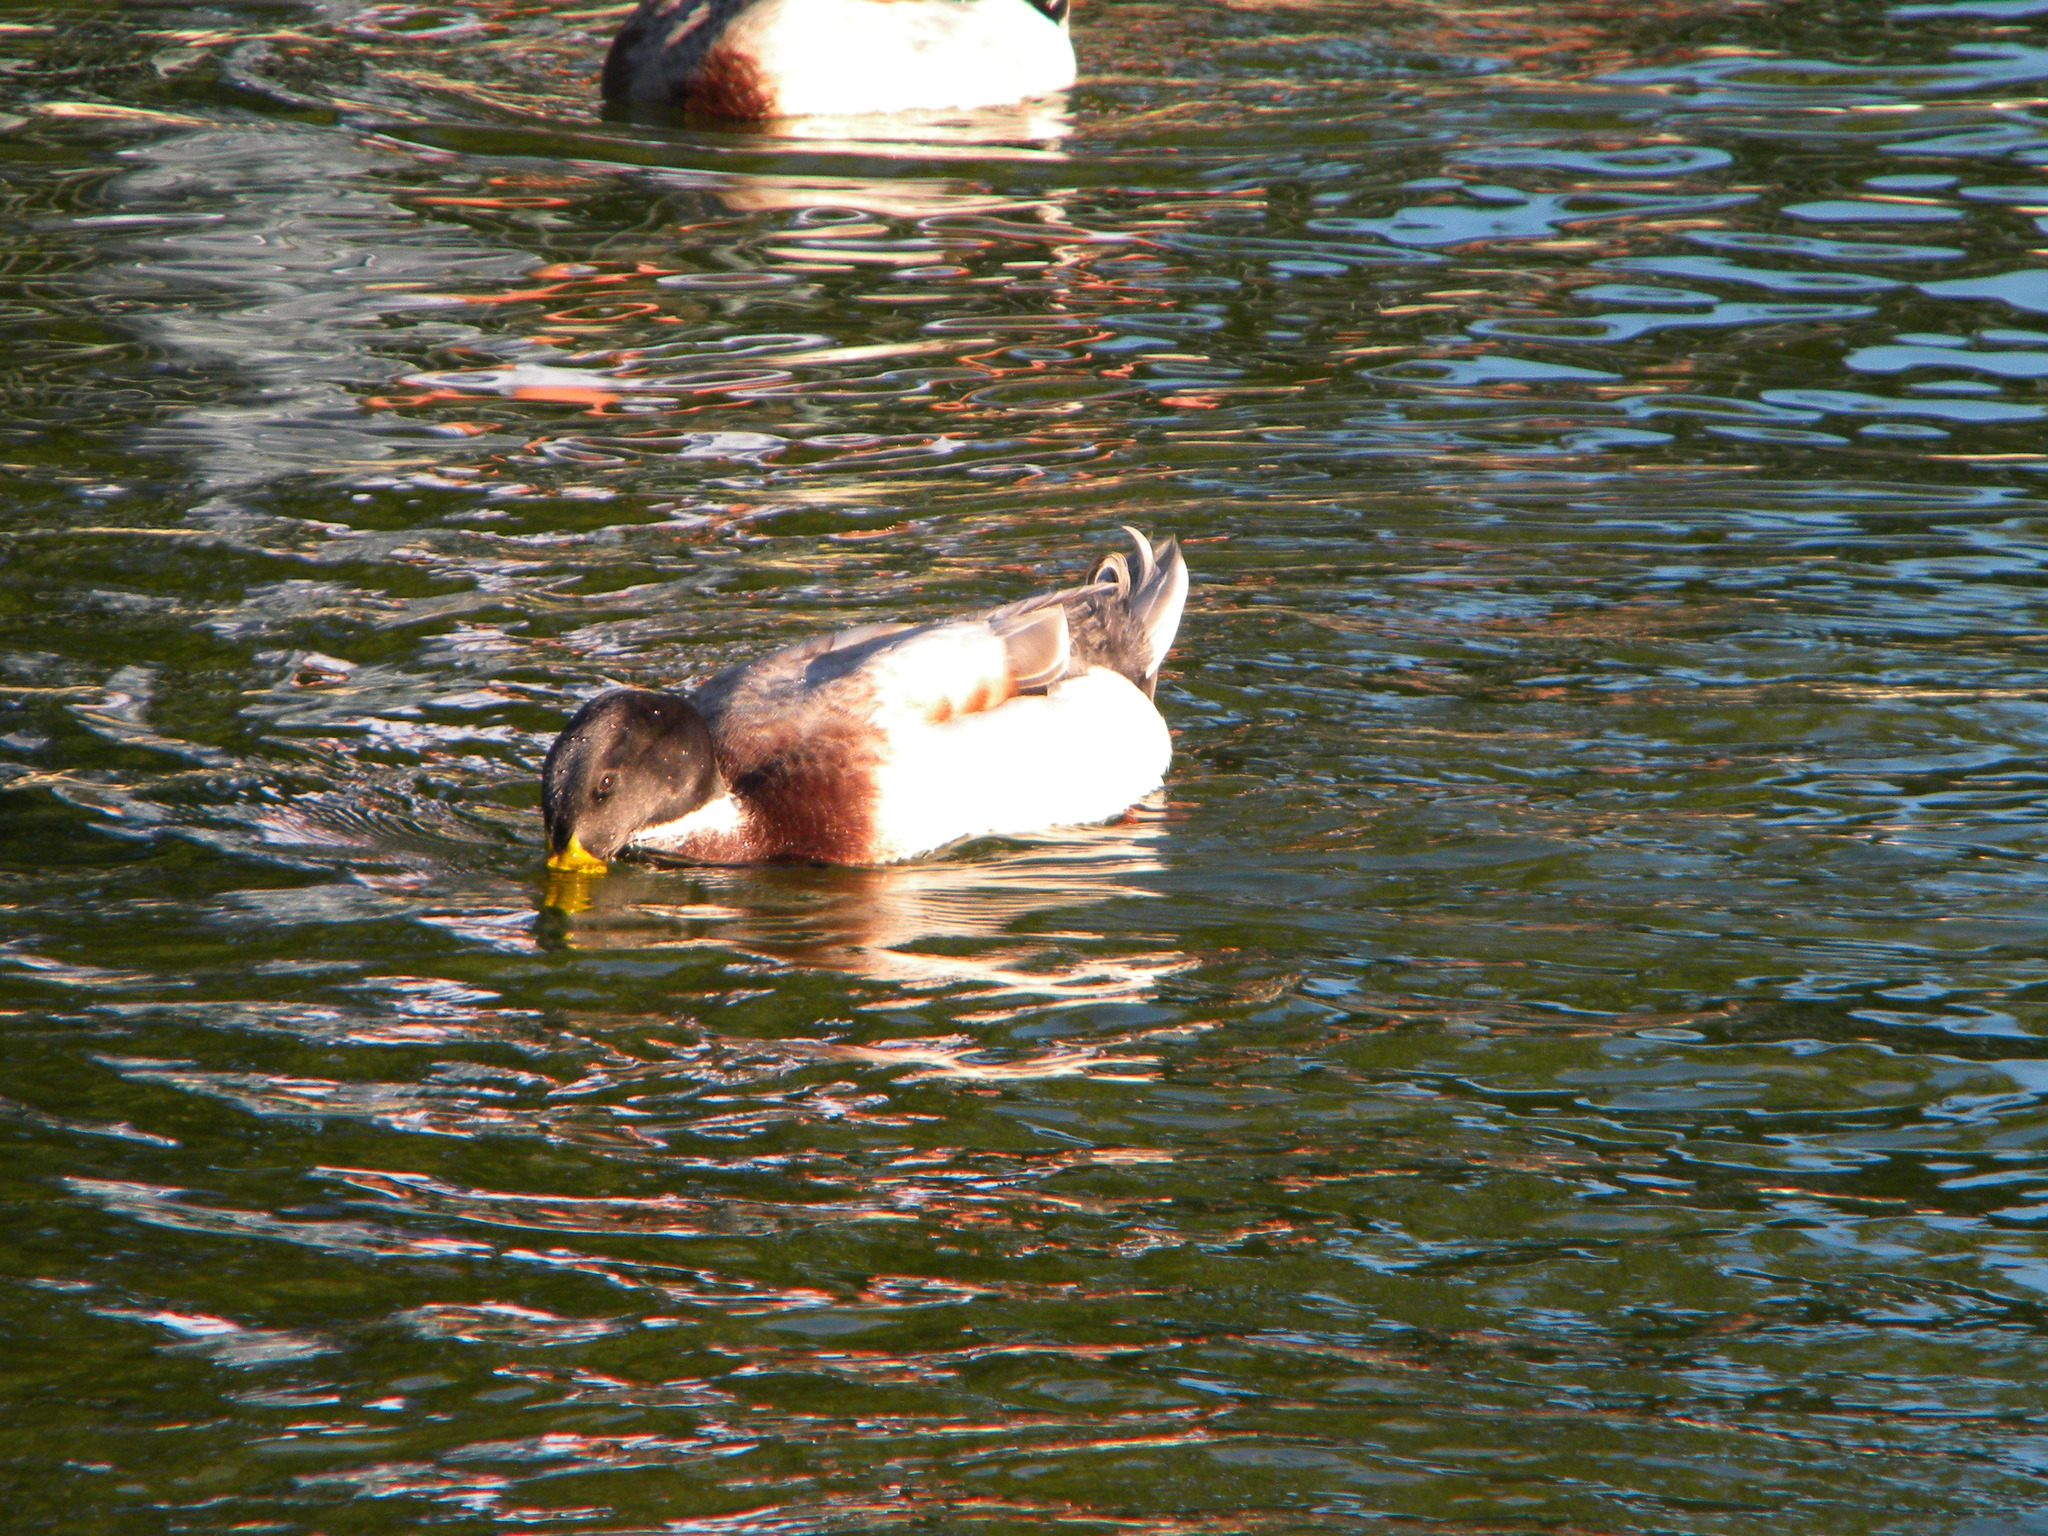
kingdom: Animalia
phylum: Chordata
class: Aves
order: Anseriformes
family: Anatidae
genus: Anas
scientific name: Anas platyrhynchos
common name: Mallard
